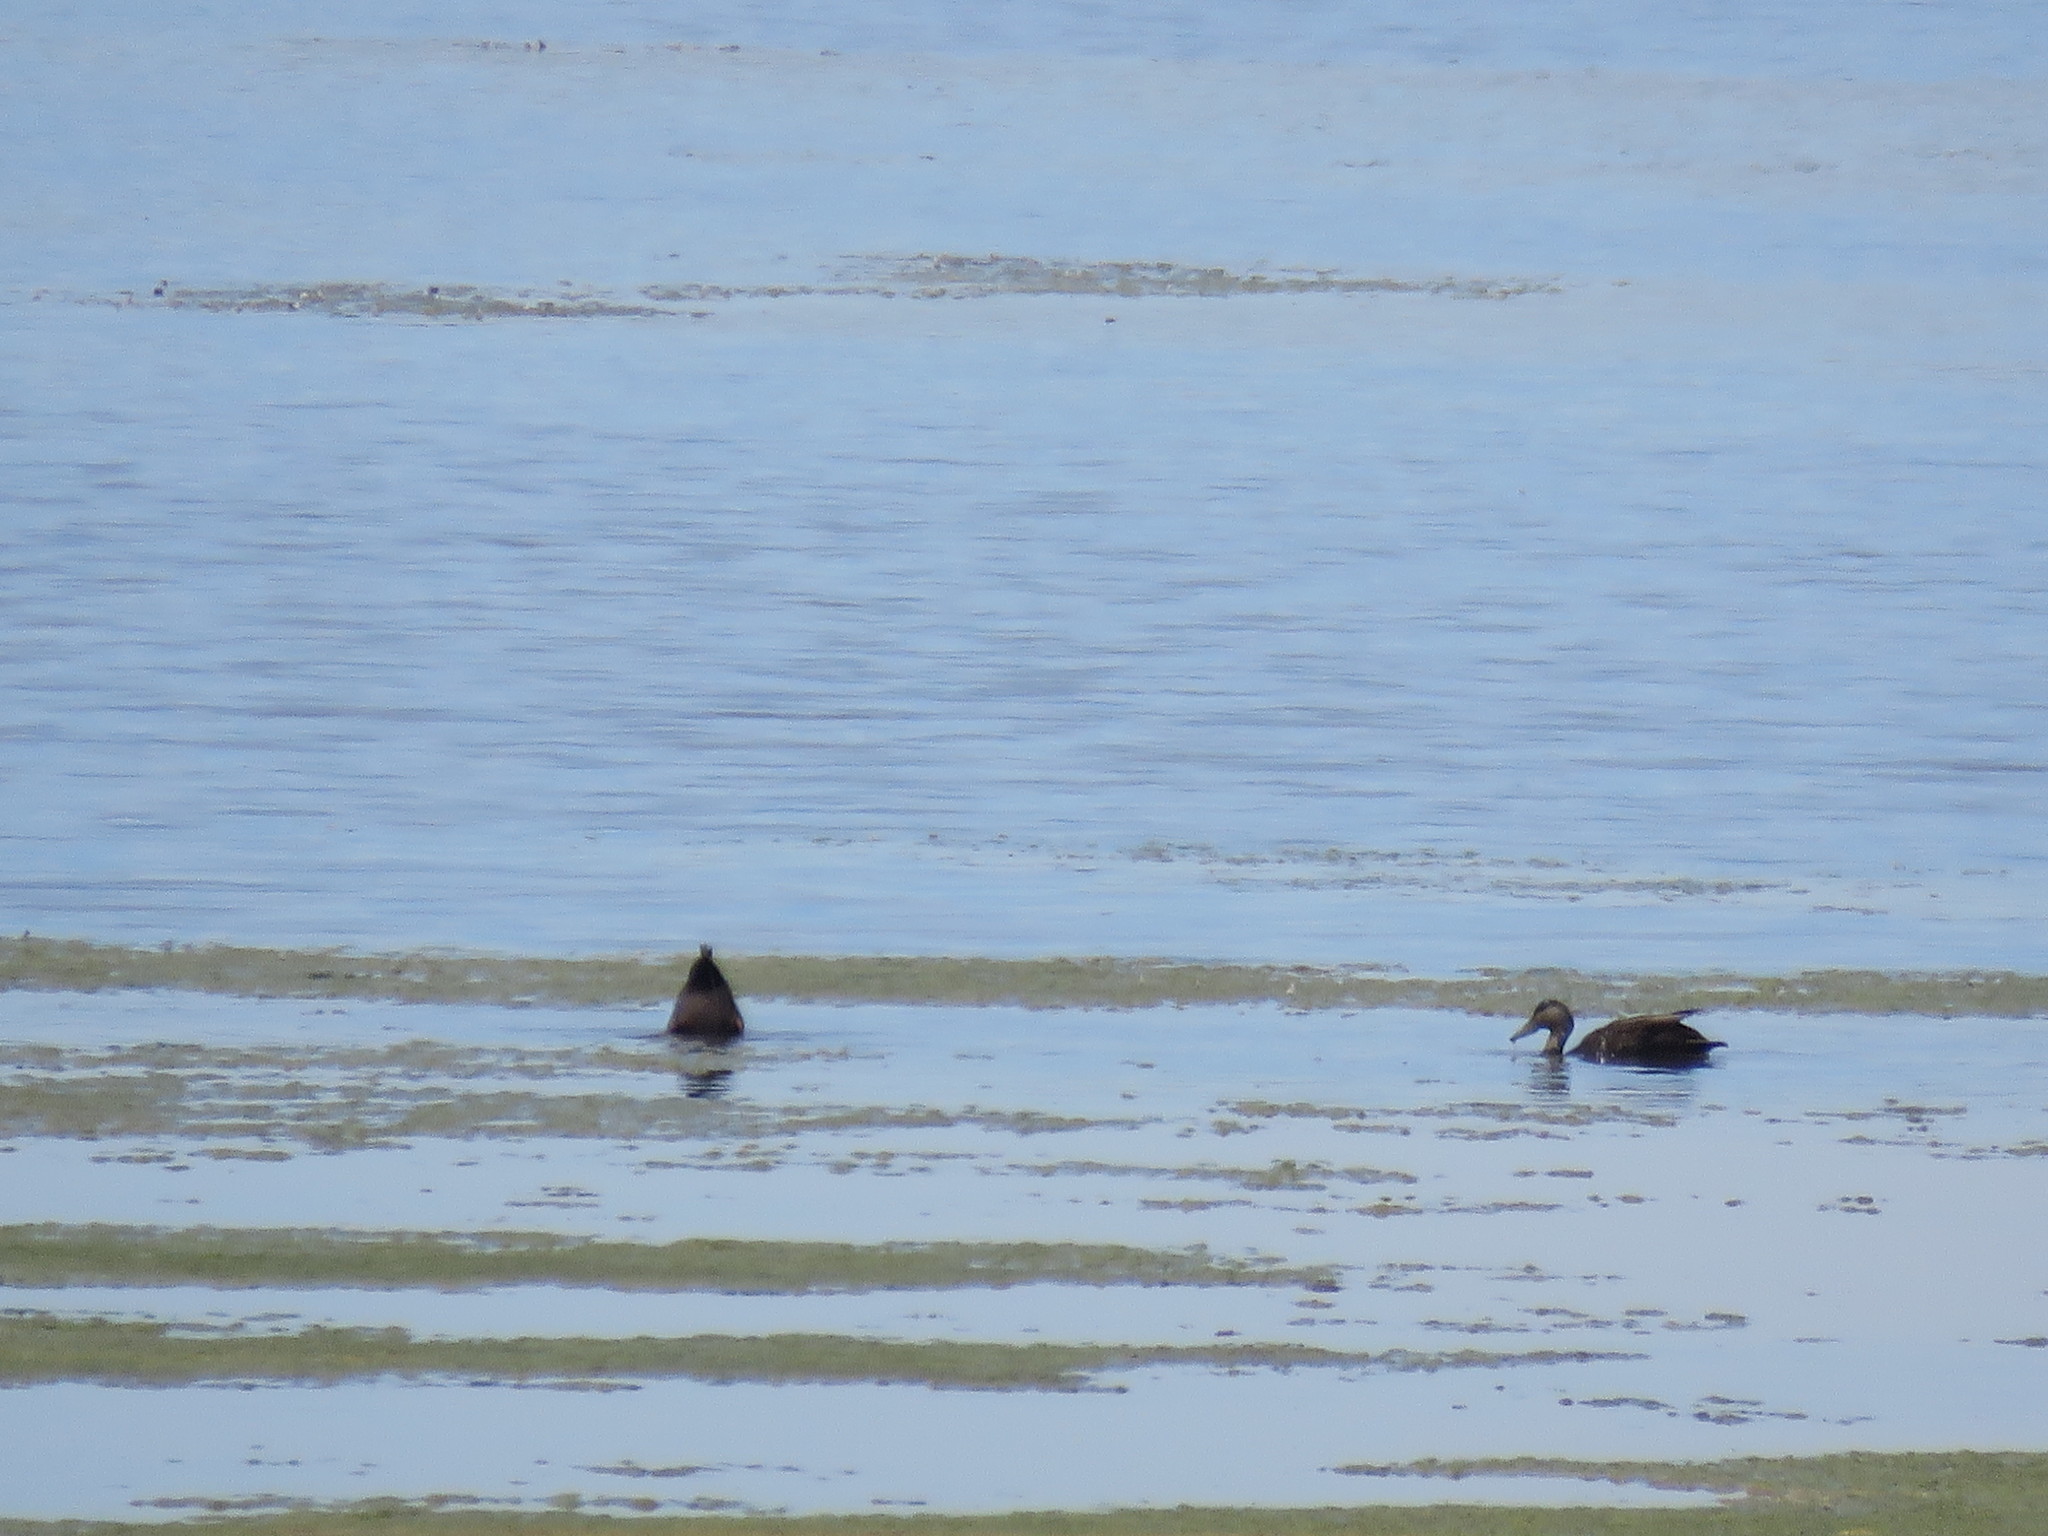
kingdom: Animalia
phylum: Chordata
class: Aves
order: Anseriformes
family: Anatidae
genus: Anas
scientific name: Anas rubripes
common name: American black duck
